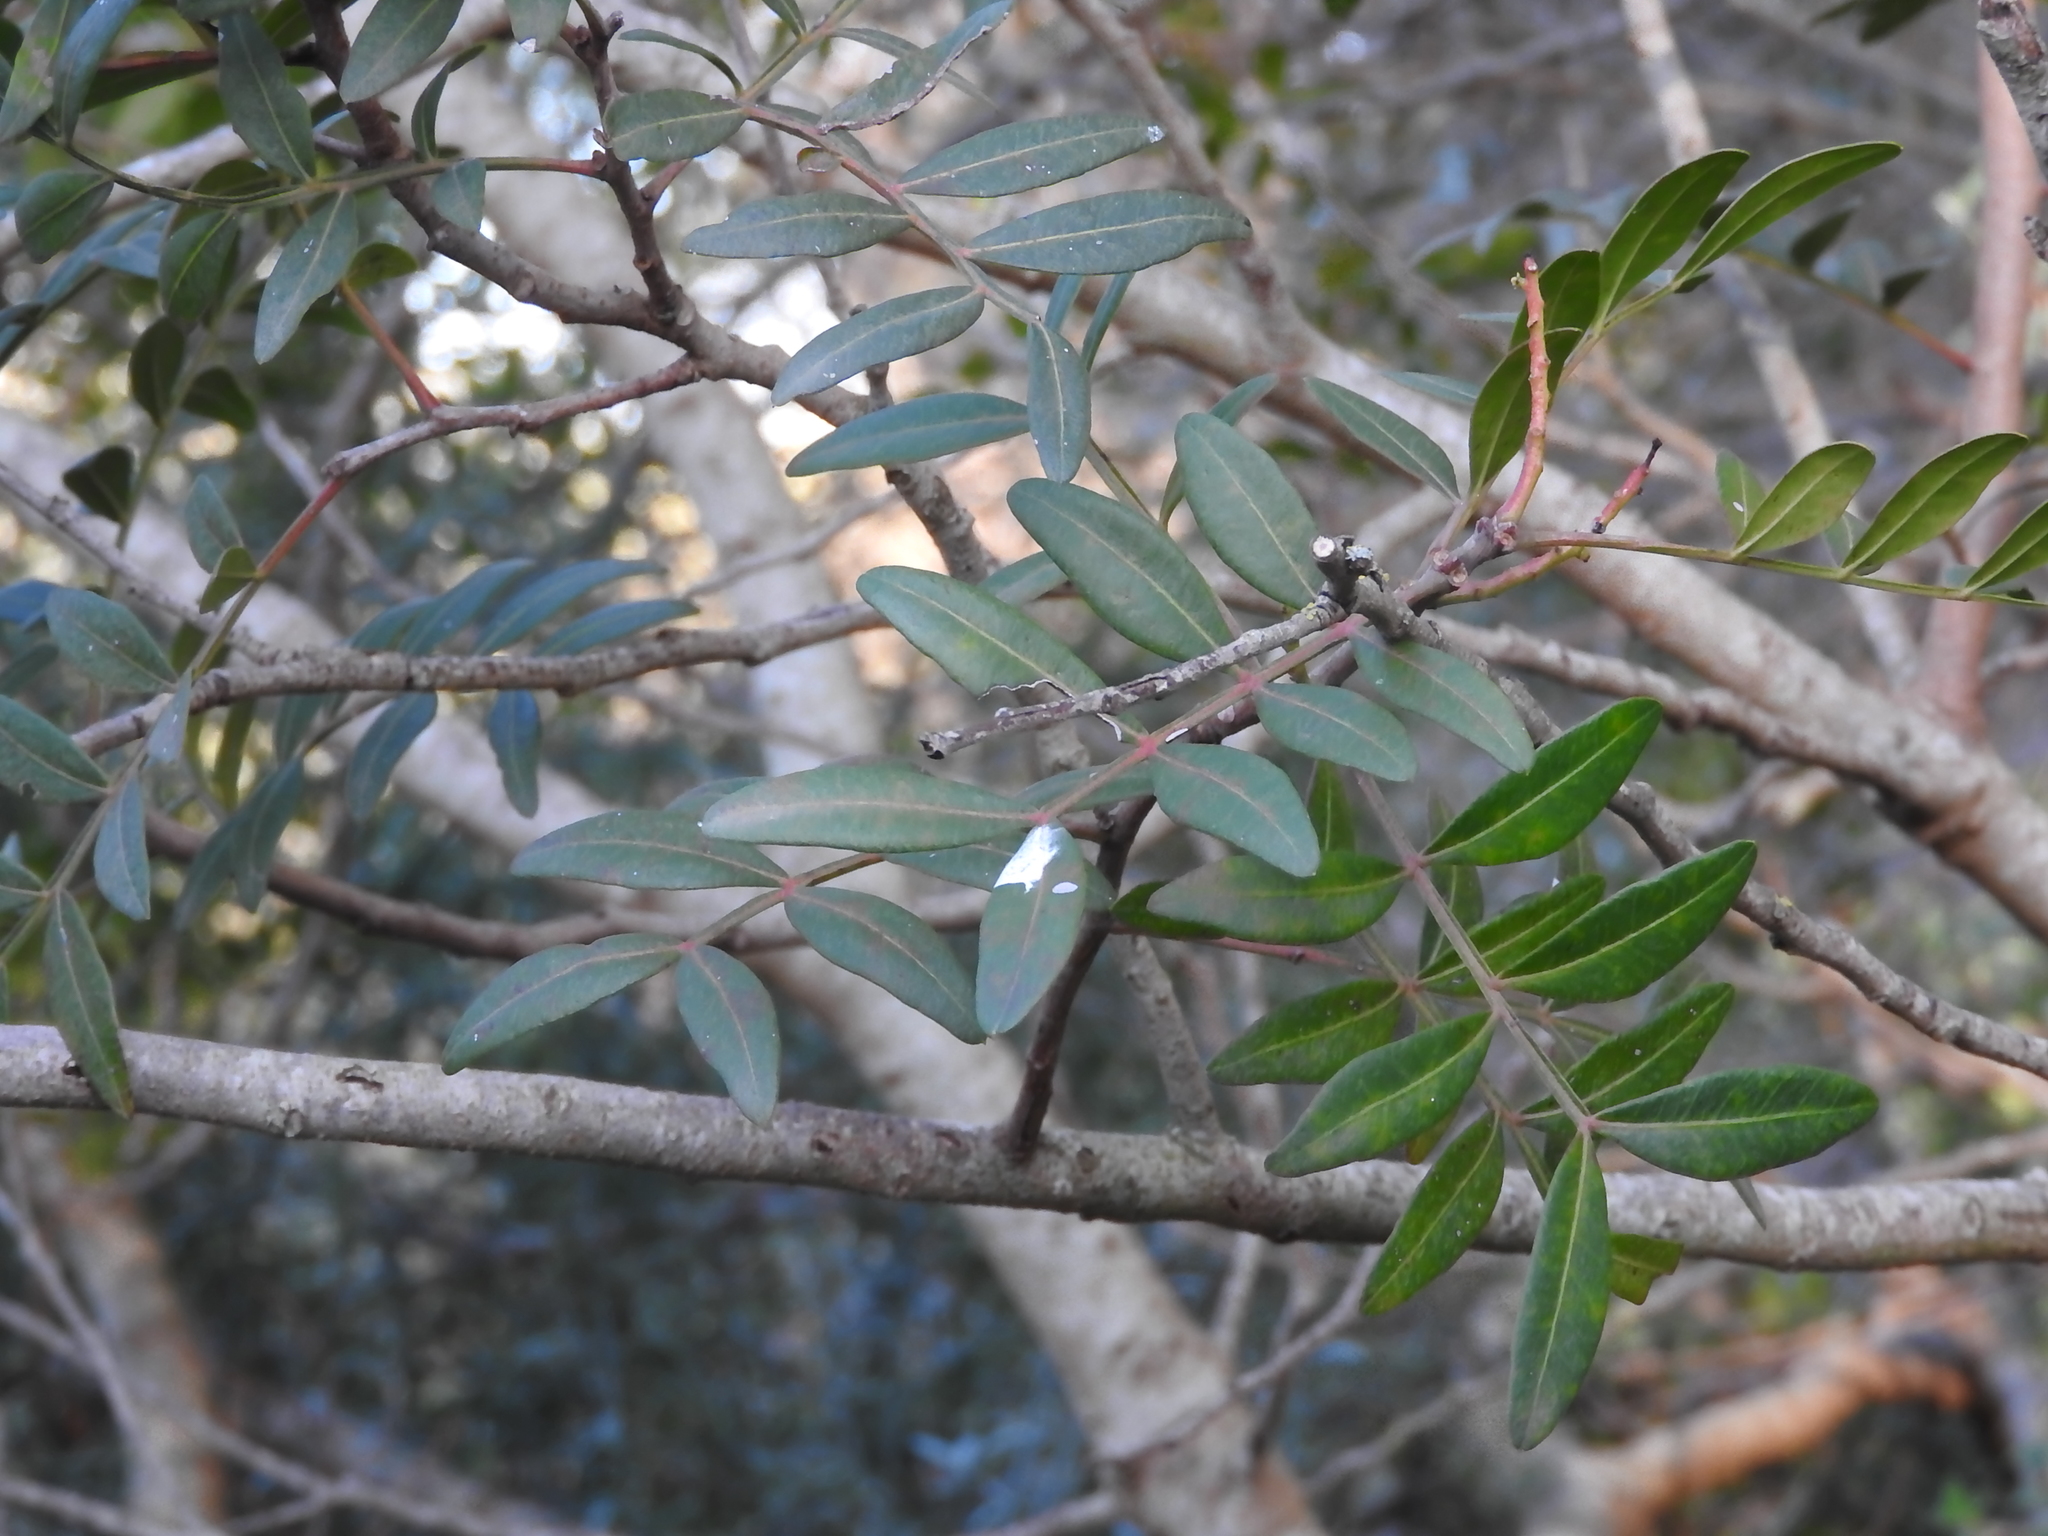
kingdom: Plantae
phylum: Tracheophyta
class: Magnoliopsida
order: Sapindales
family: Anacardiaceae
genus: Pistacia
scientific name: Pistacia lentiscus
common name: Lentisk
